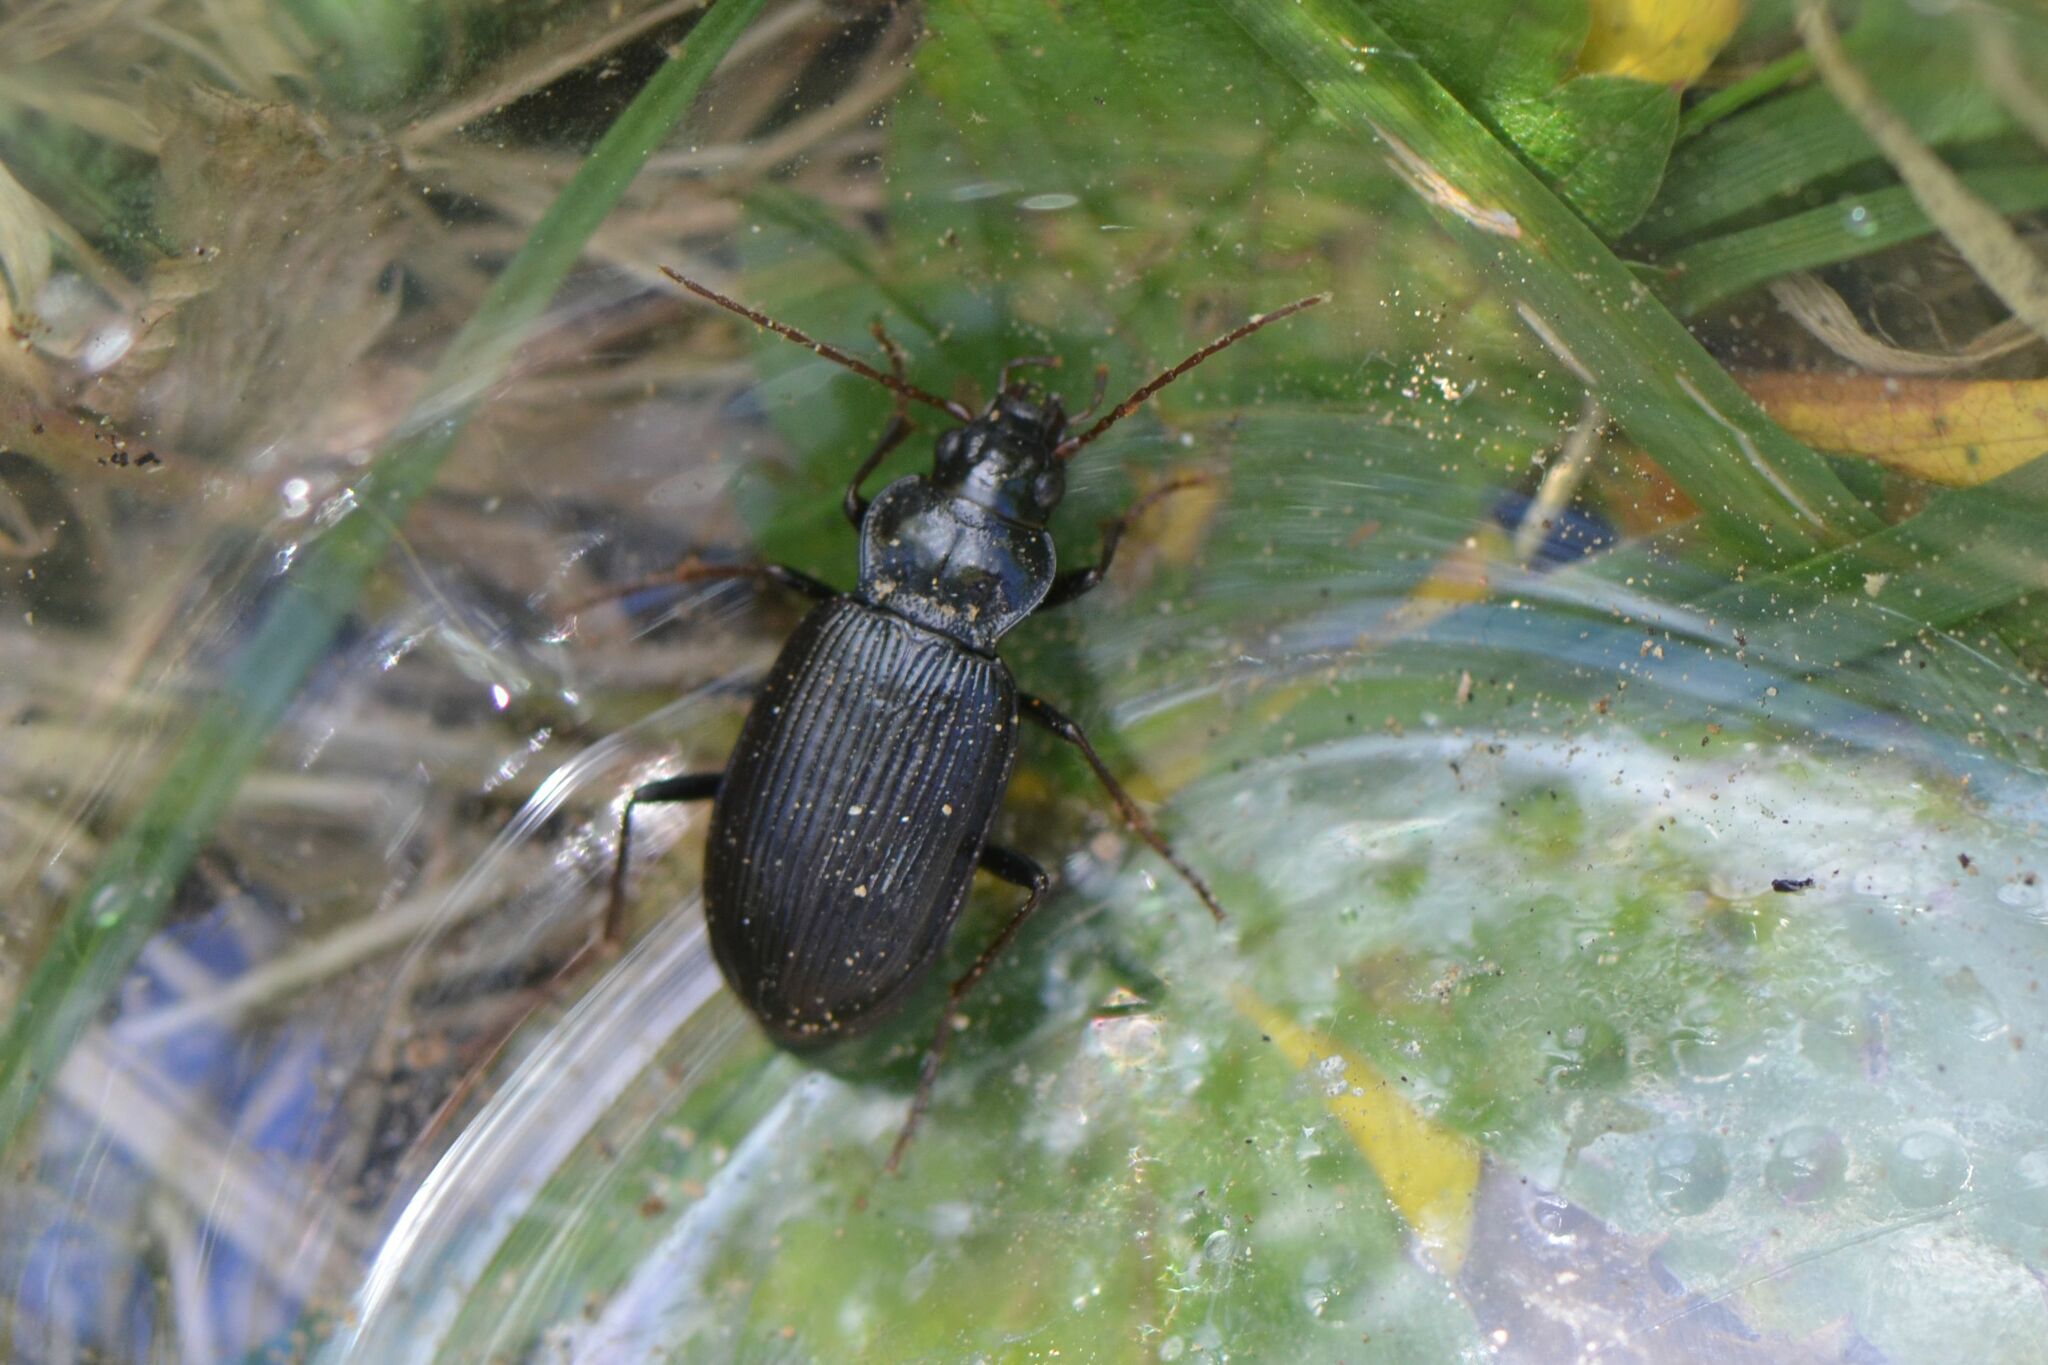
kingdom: Animalia
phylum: Arthropoda
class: Insecta
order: Coleoptera
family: Carabidae
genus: Nebria
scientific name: Nebria brevicollis
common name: Short-necked gazelle beetle
